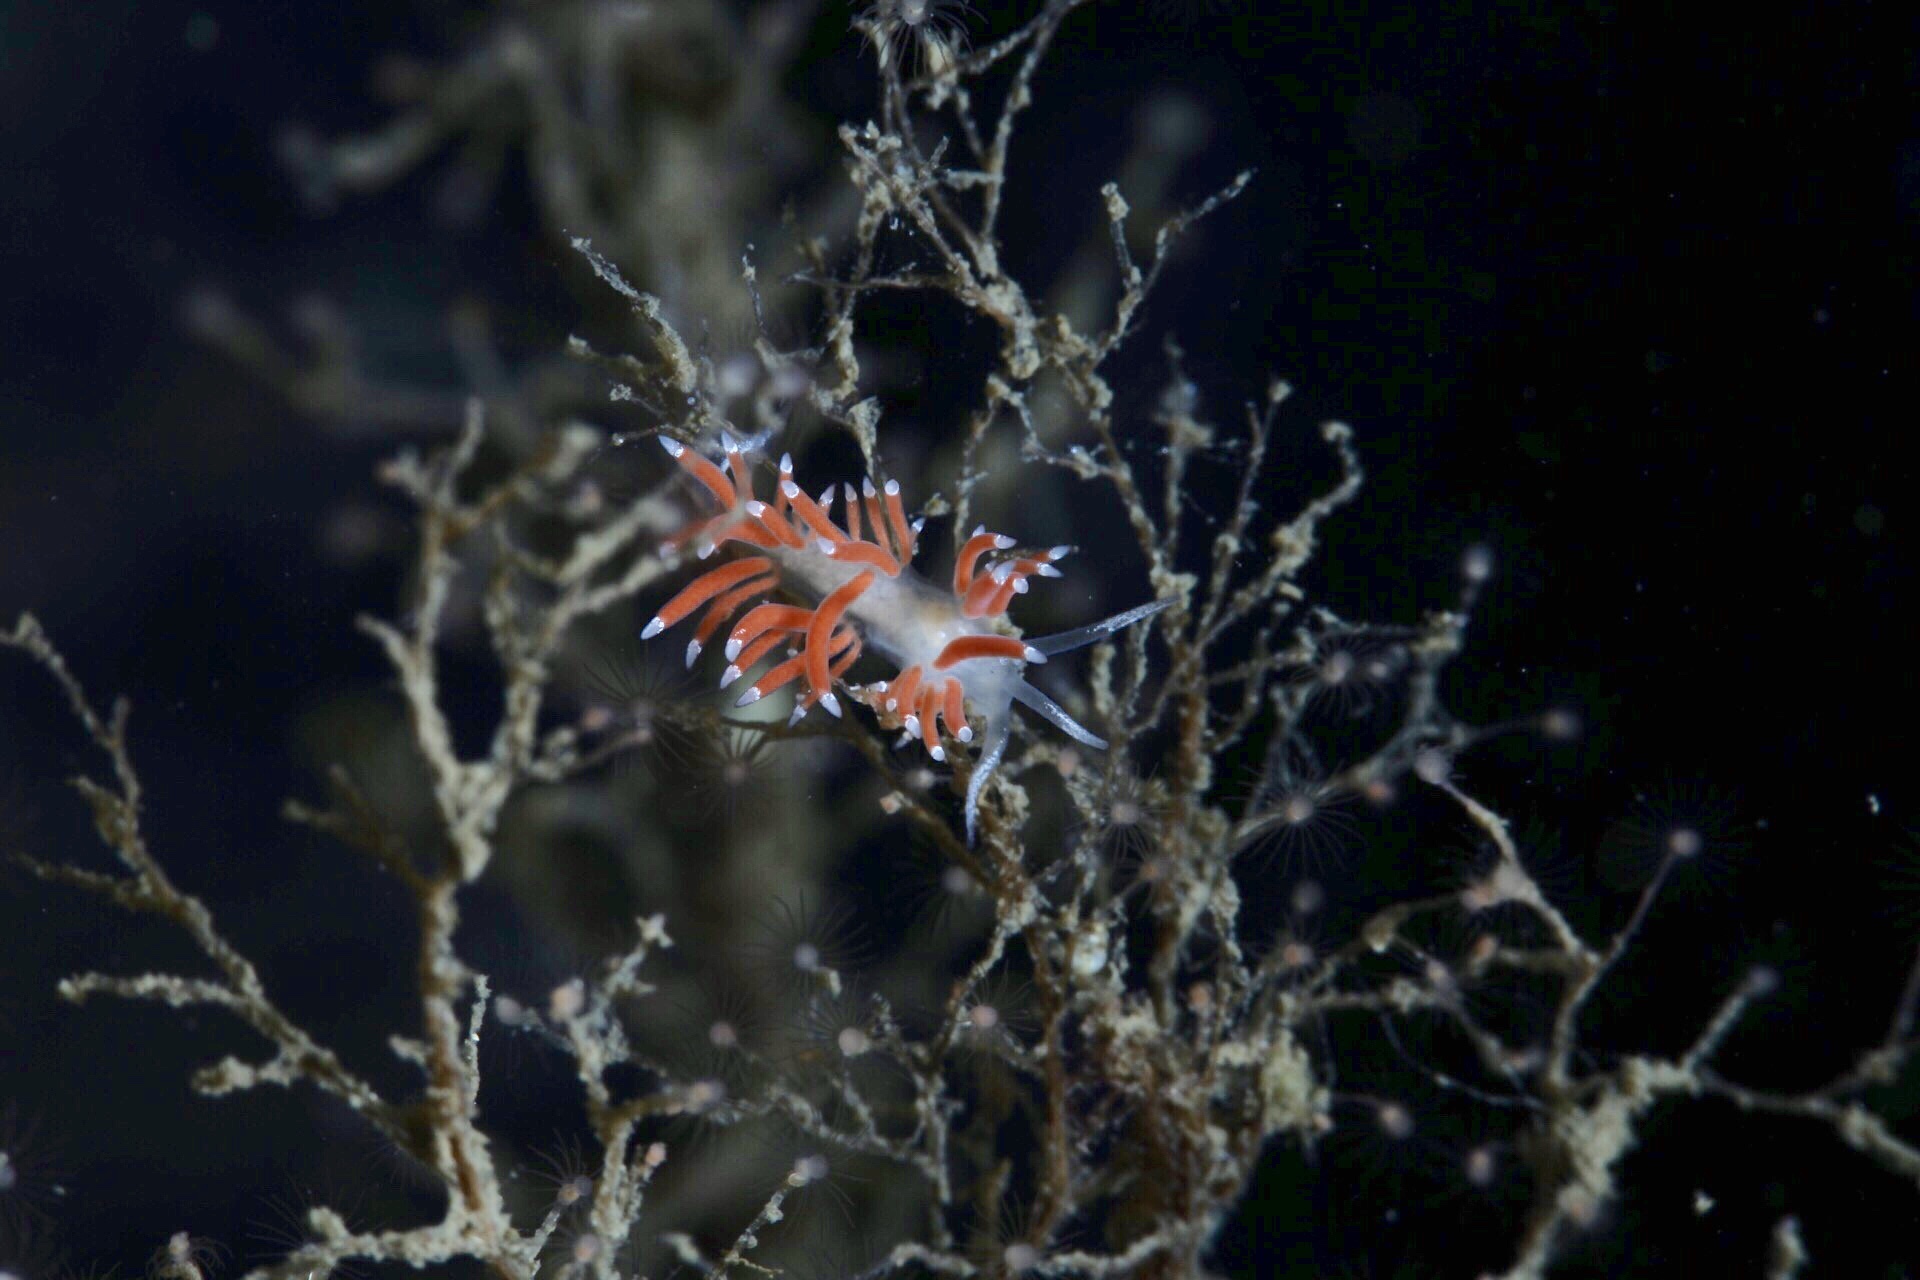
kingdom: Animalia
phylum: Mollusca
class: Gastropoda
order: Nudibranchia
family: Coryphellidae
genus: Coryphella
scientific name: Coryphella gracilis
